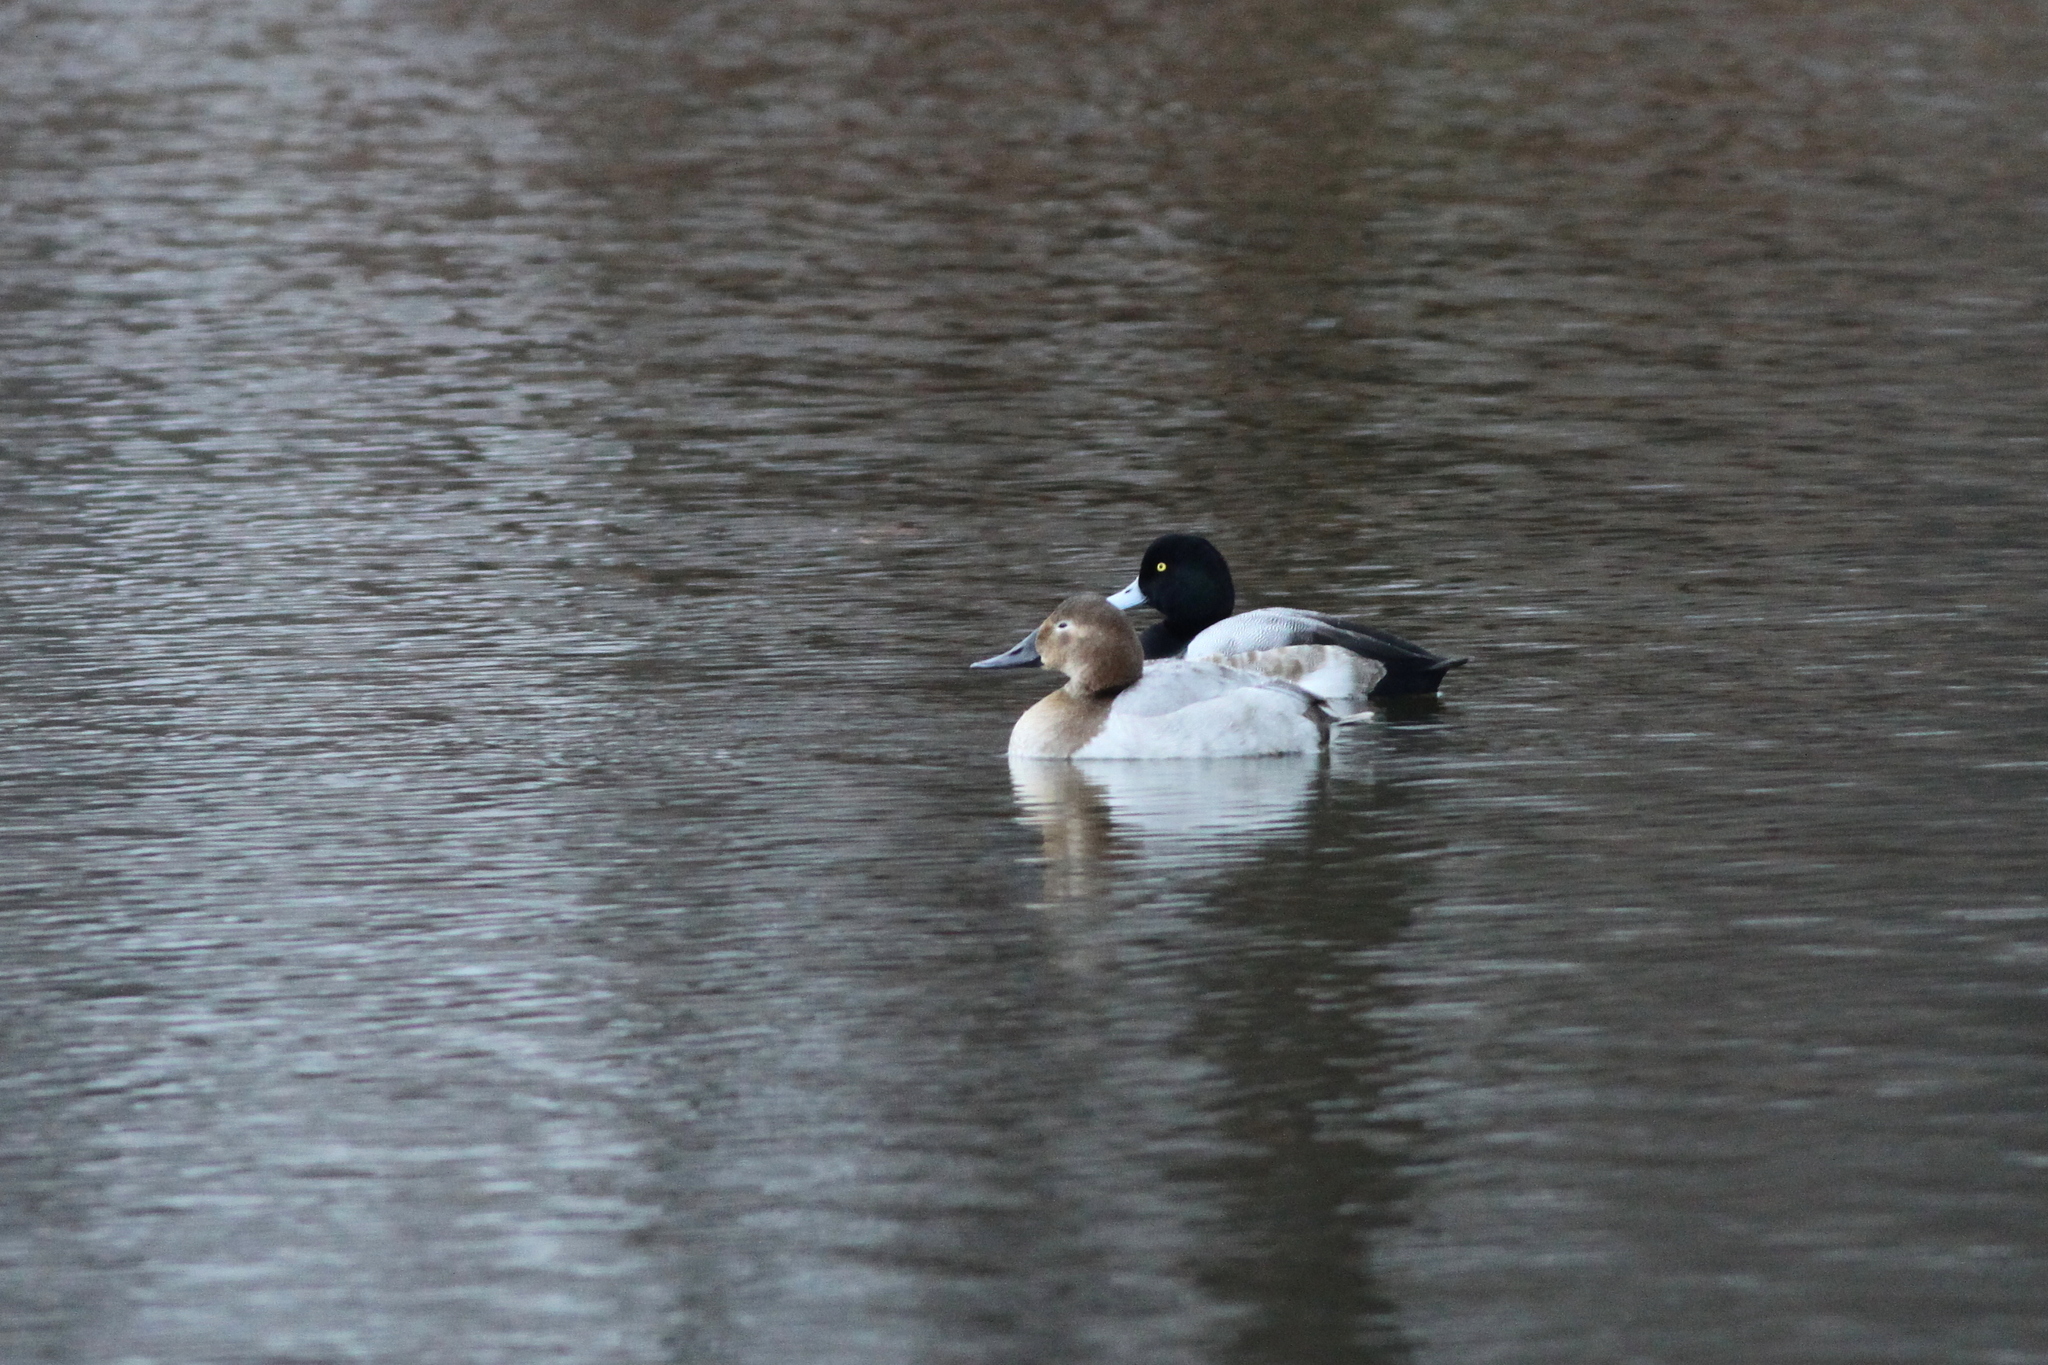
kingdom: Animalia
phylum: Chordata
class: Aves
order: Anseriformes
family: Anatidae
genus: Aythya
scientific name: Aythya valisineria
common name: Canvasback
